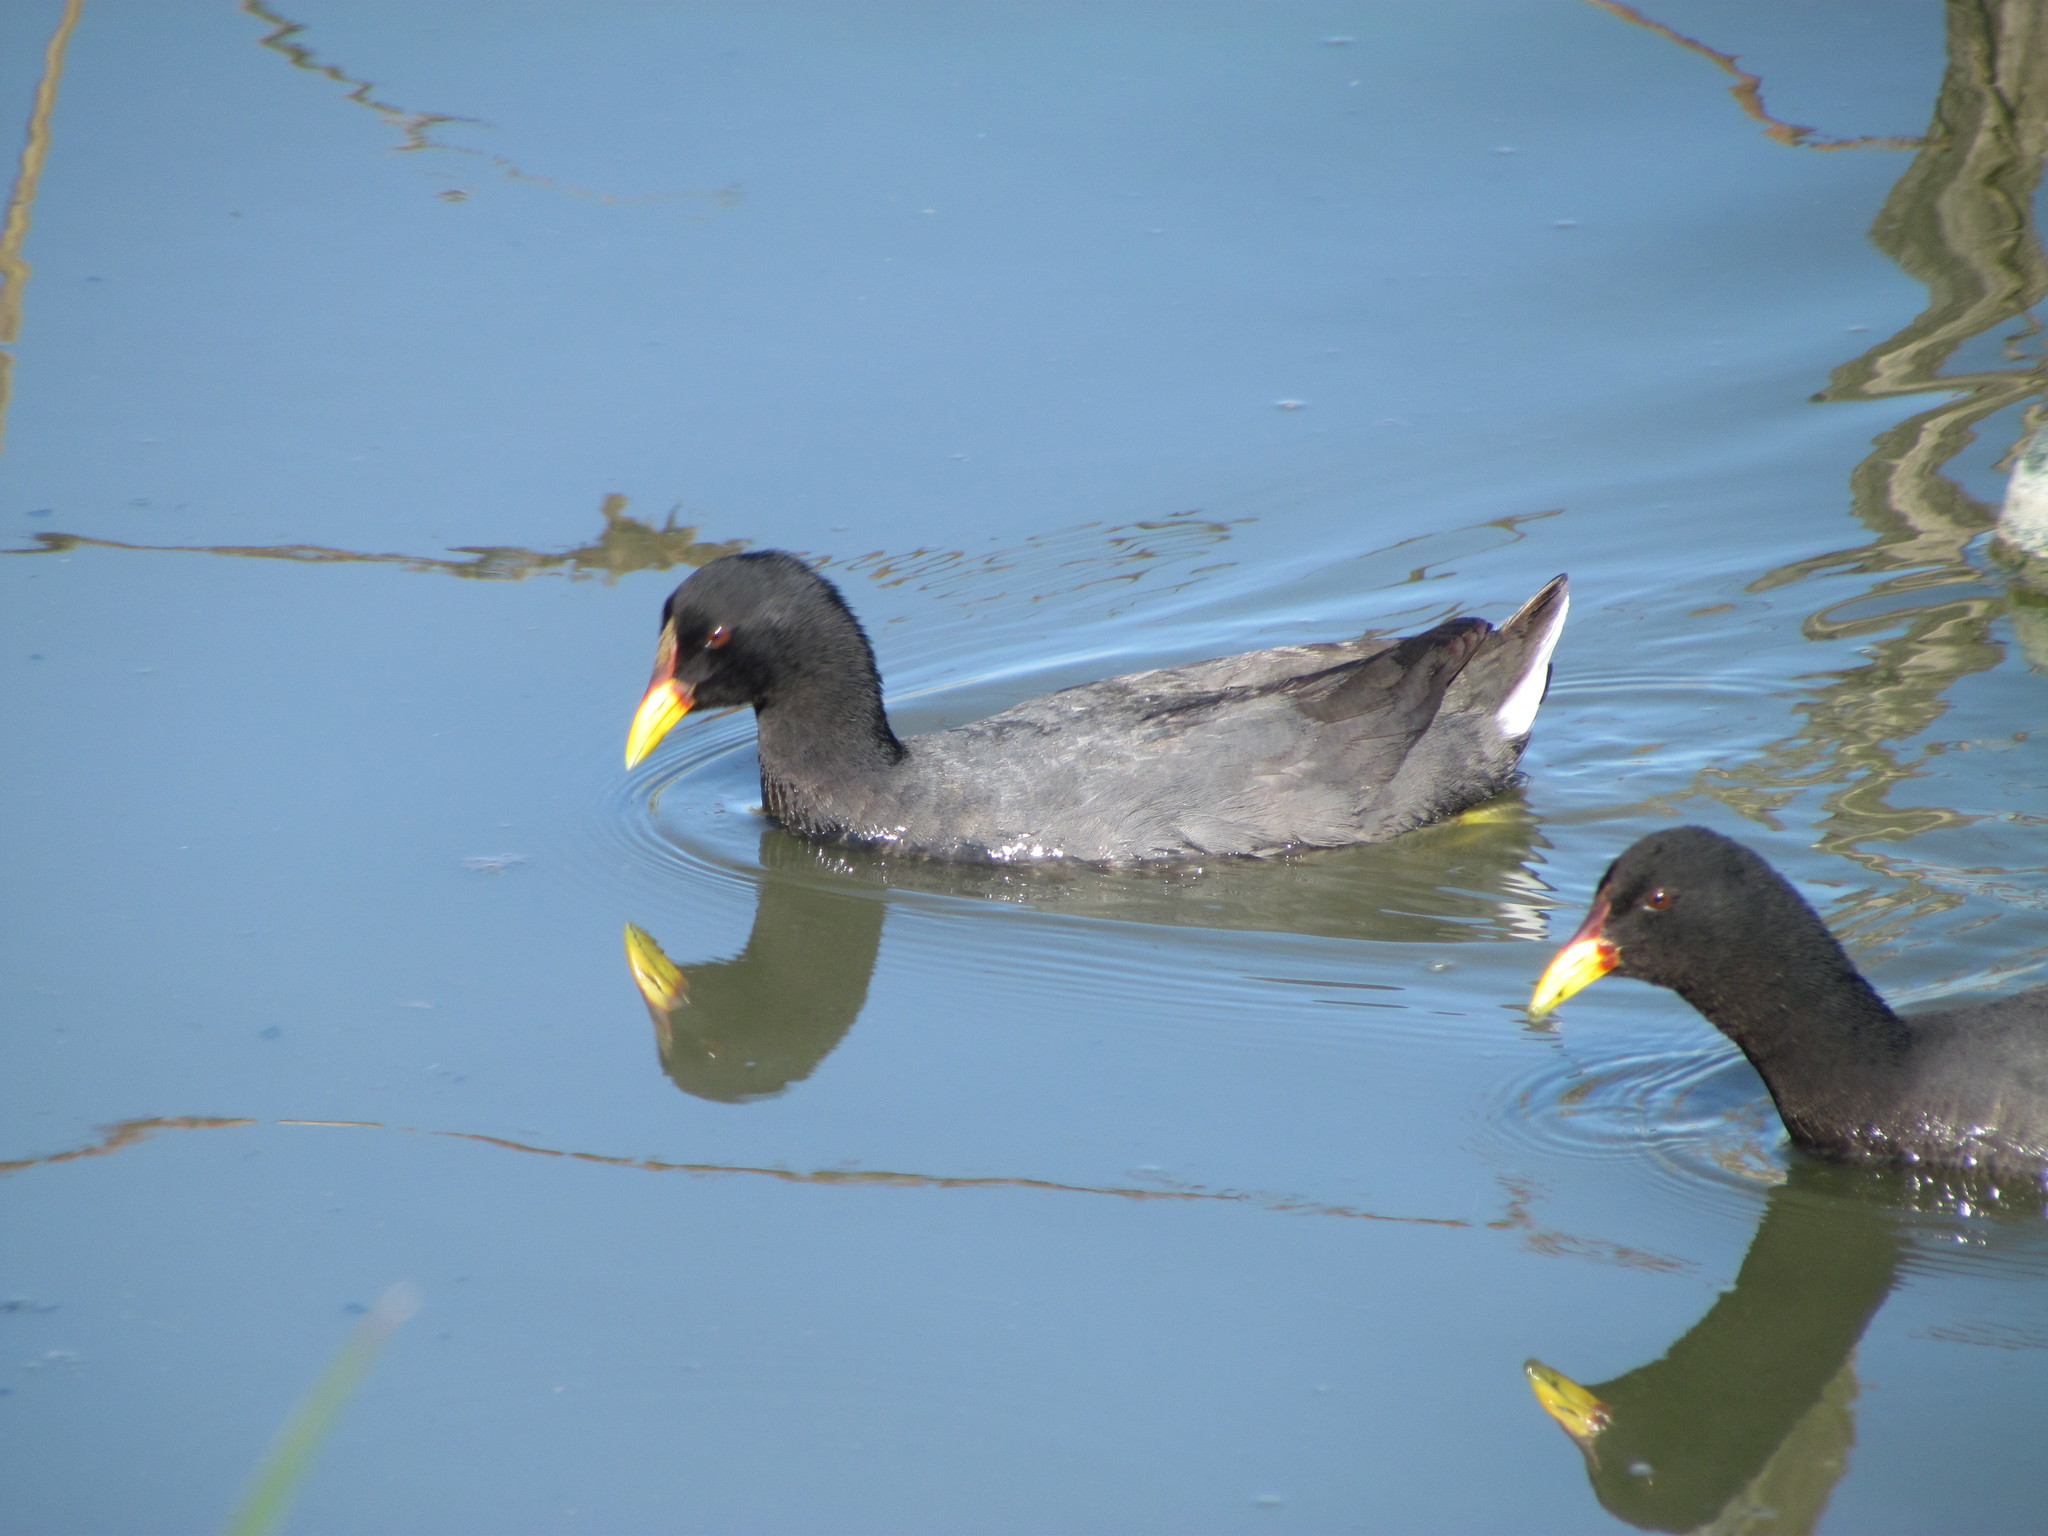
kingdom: Animalia
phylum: Chordata
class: Aves
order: Gruiformes
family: Rallidae
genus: Fulica
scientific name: Fulica rufifrons
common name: Red-fronted coot
